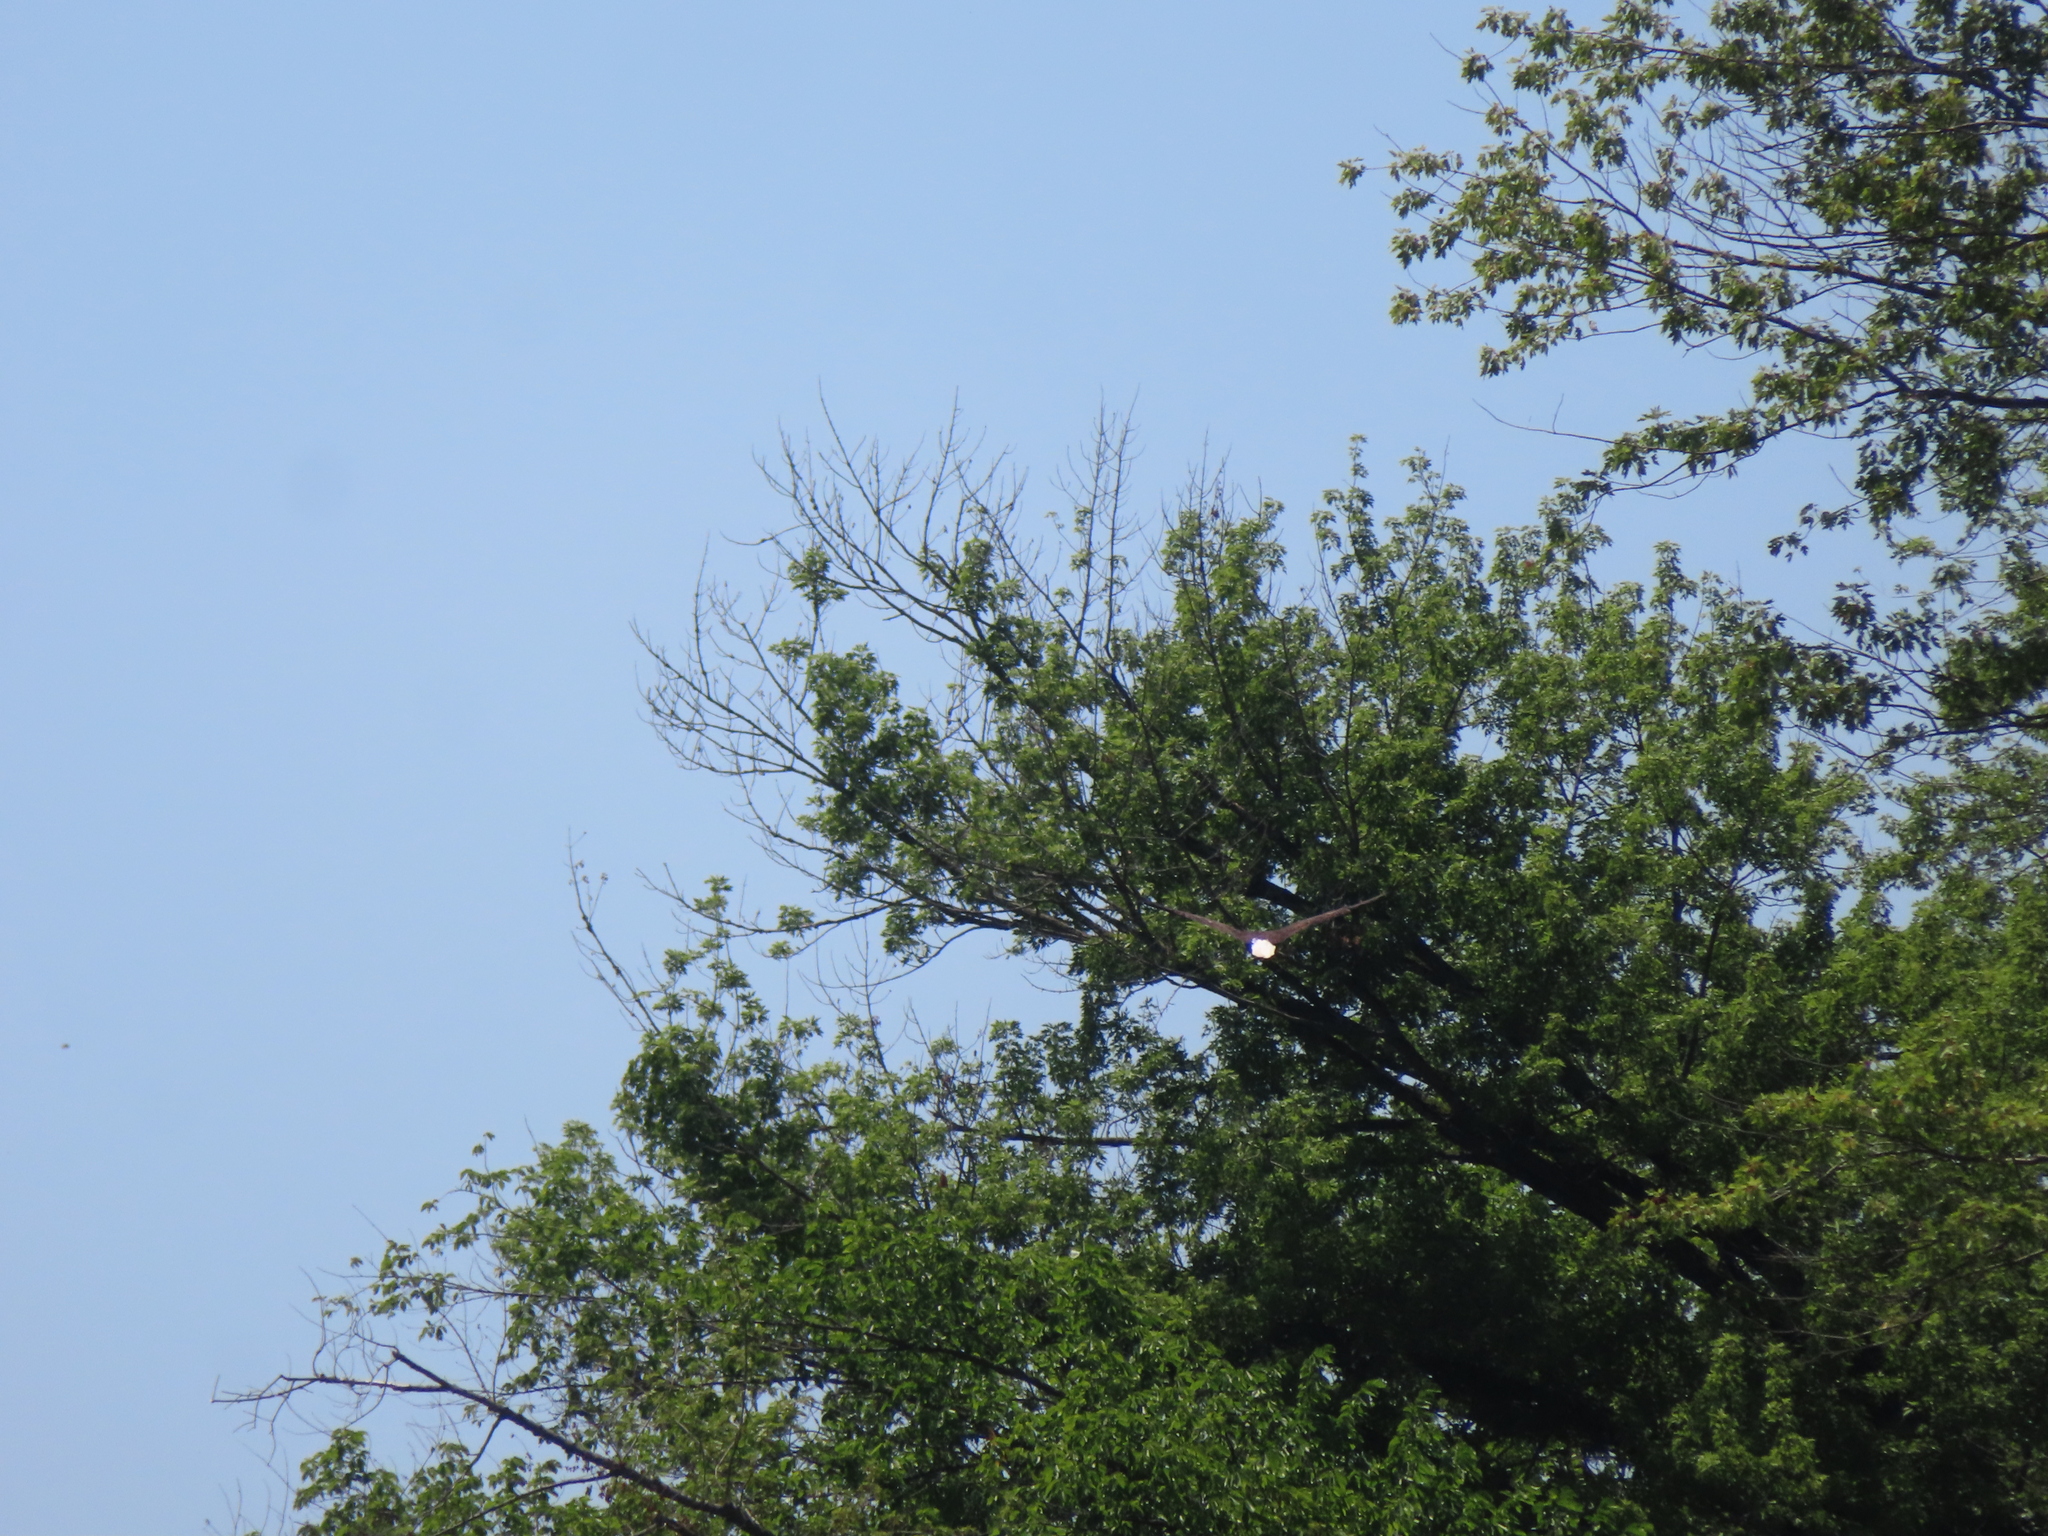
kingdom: Animalia
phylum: Chordata
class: Aves
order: Accipitriformes
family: Accipitridae
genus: Haliaeetus
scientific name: Haliaeetus leucocephalus
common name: Bald eagle
